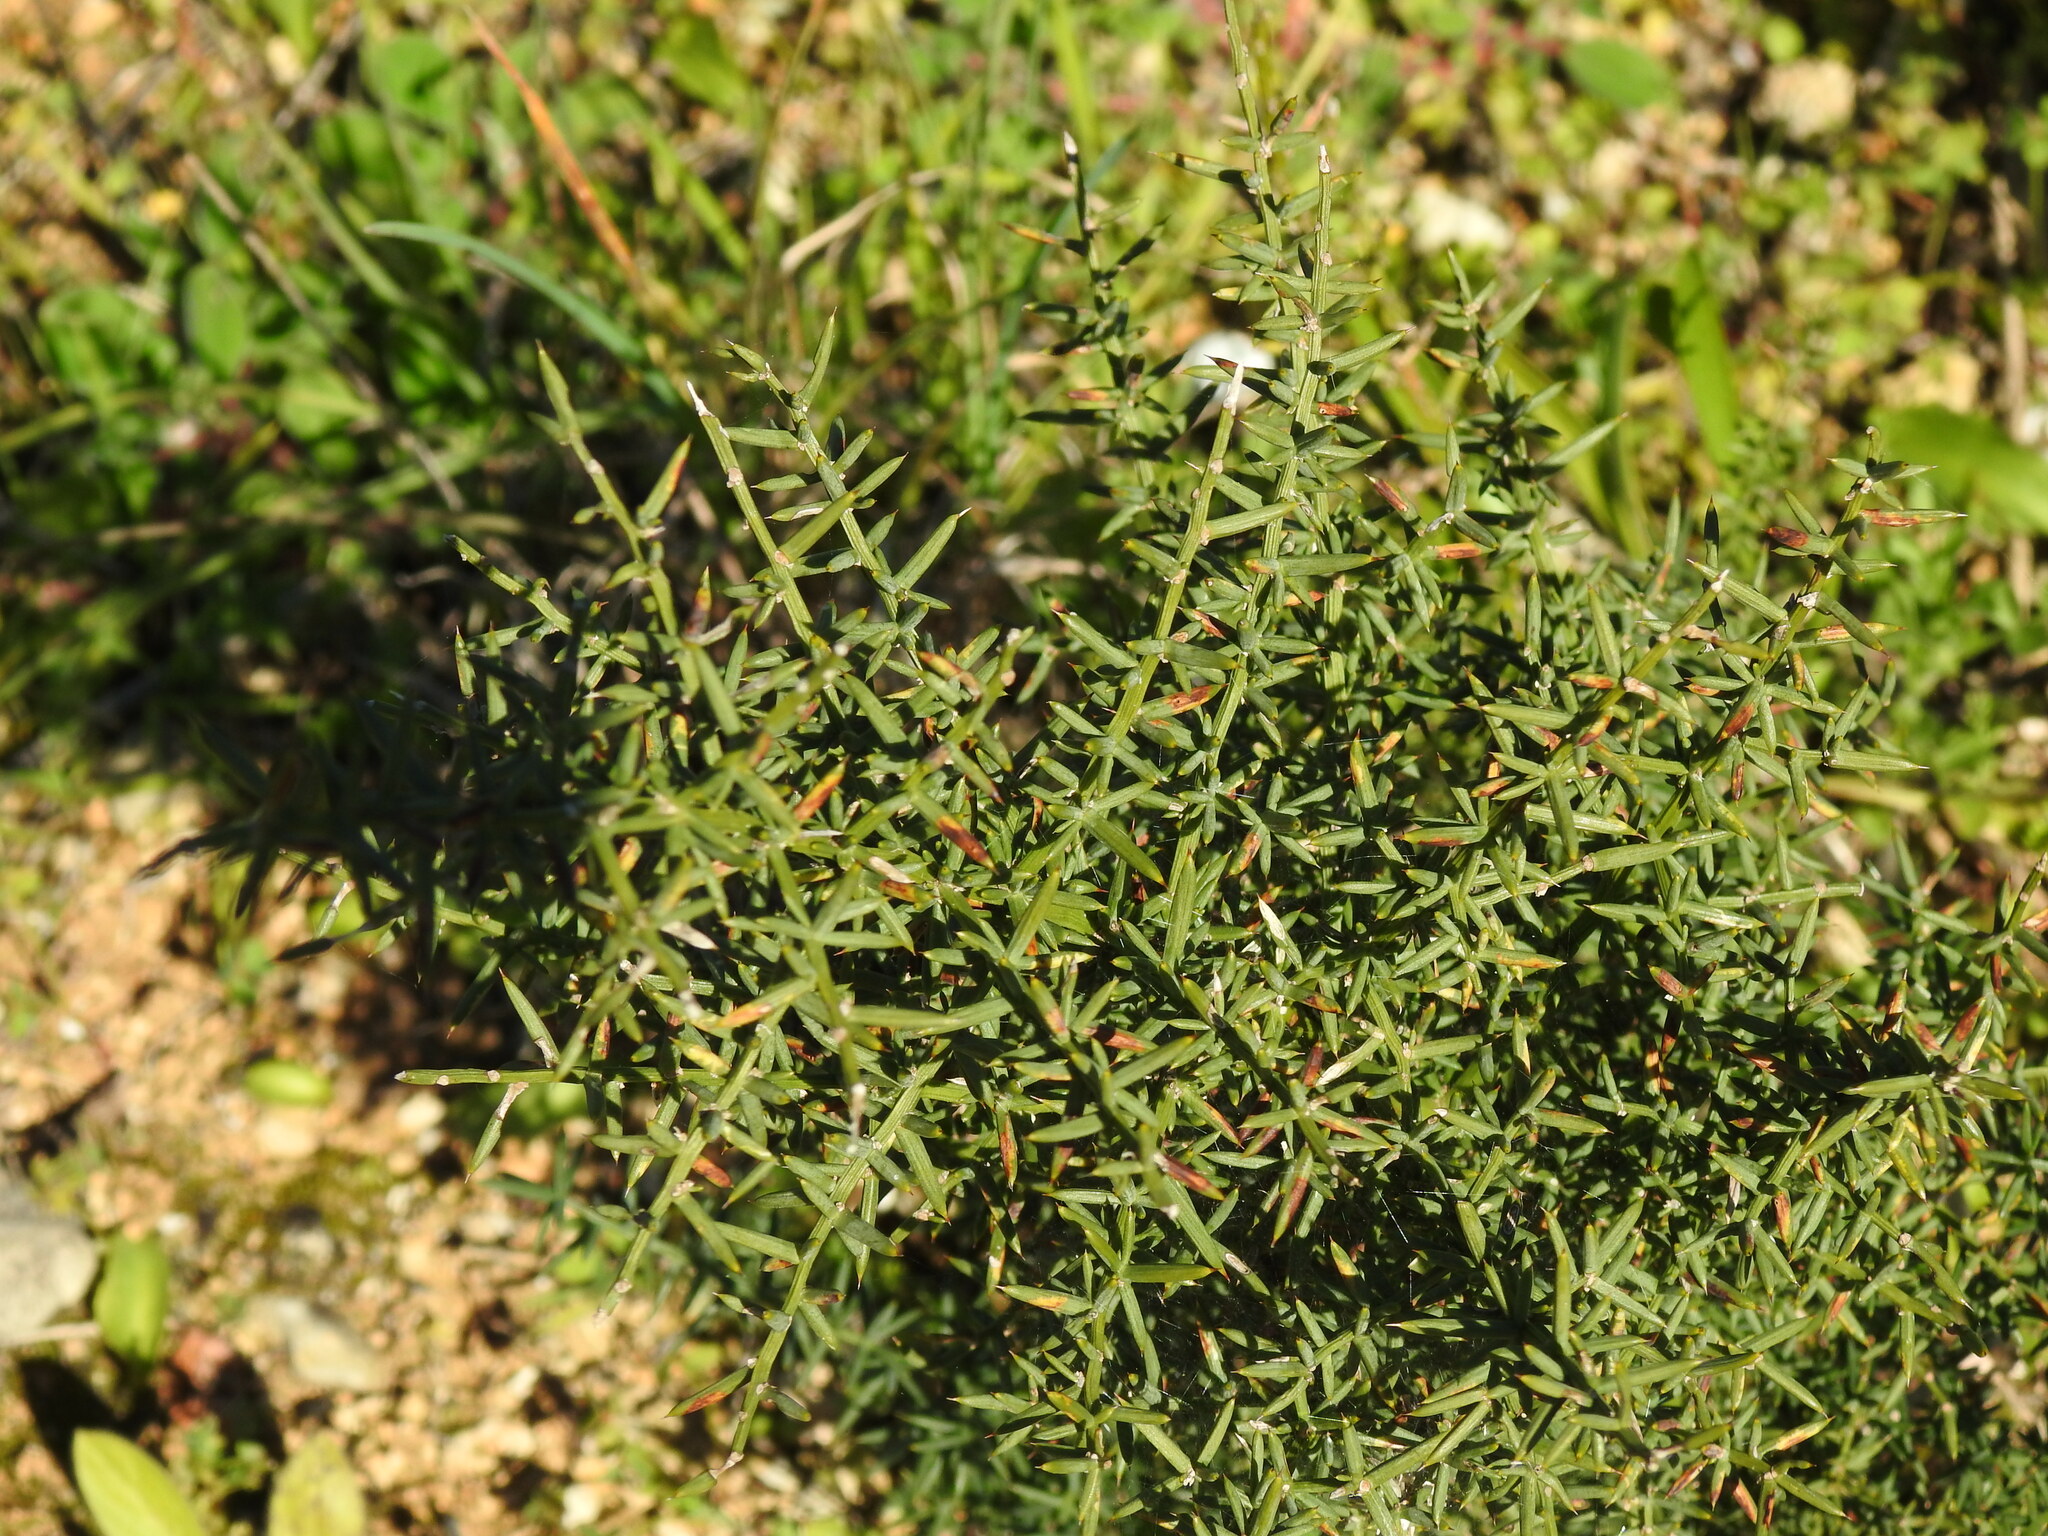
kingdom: Plantae
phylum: Tracheophyta
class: Liliopsida
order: Asparagales
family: Asparagaceae
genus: Asparagus
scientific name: Asparagus aphyllus
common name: Mediterranean asparagus
